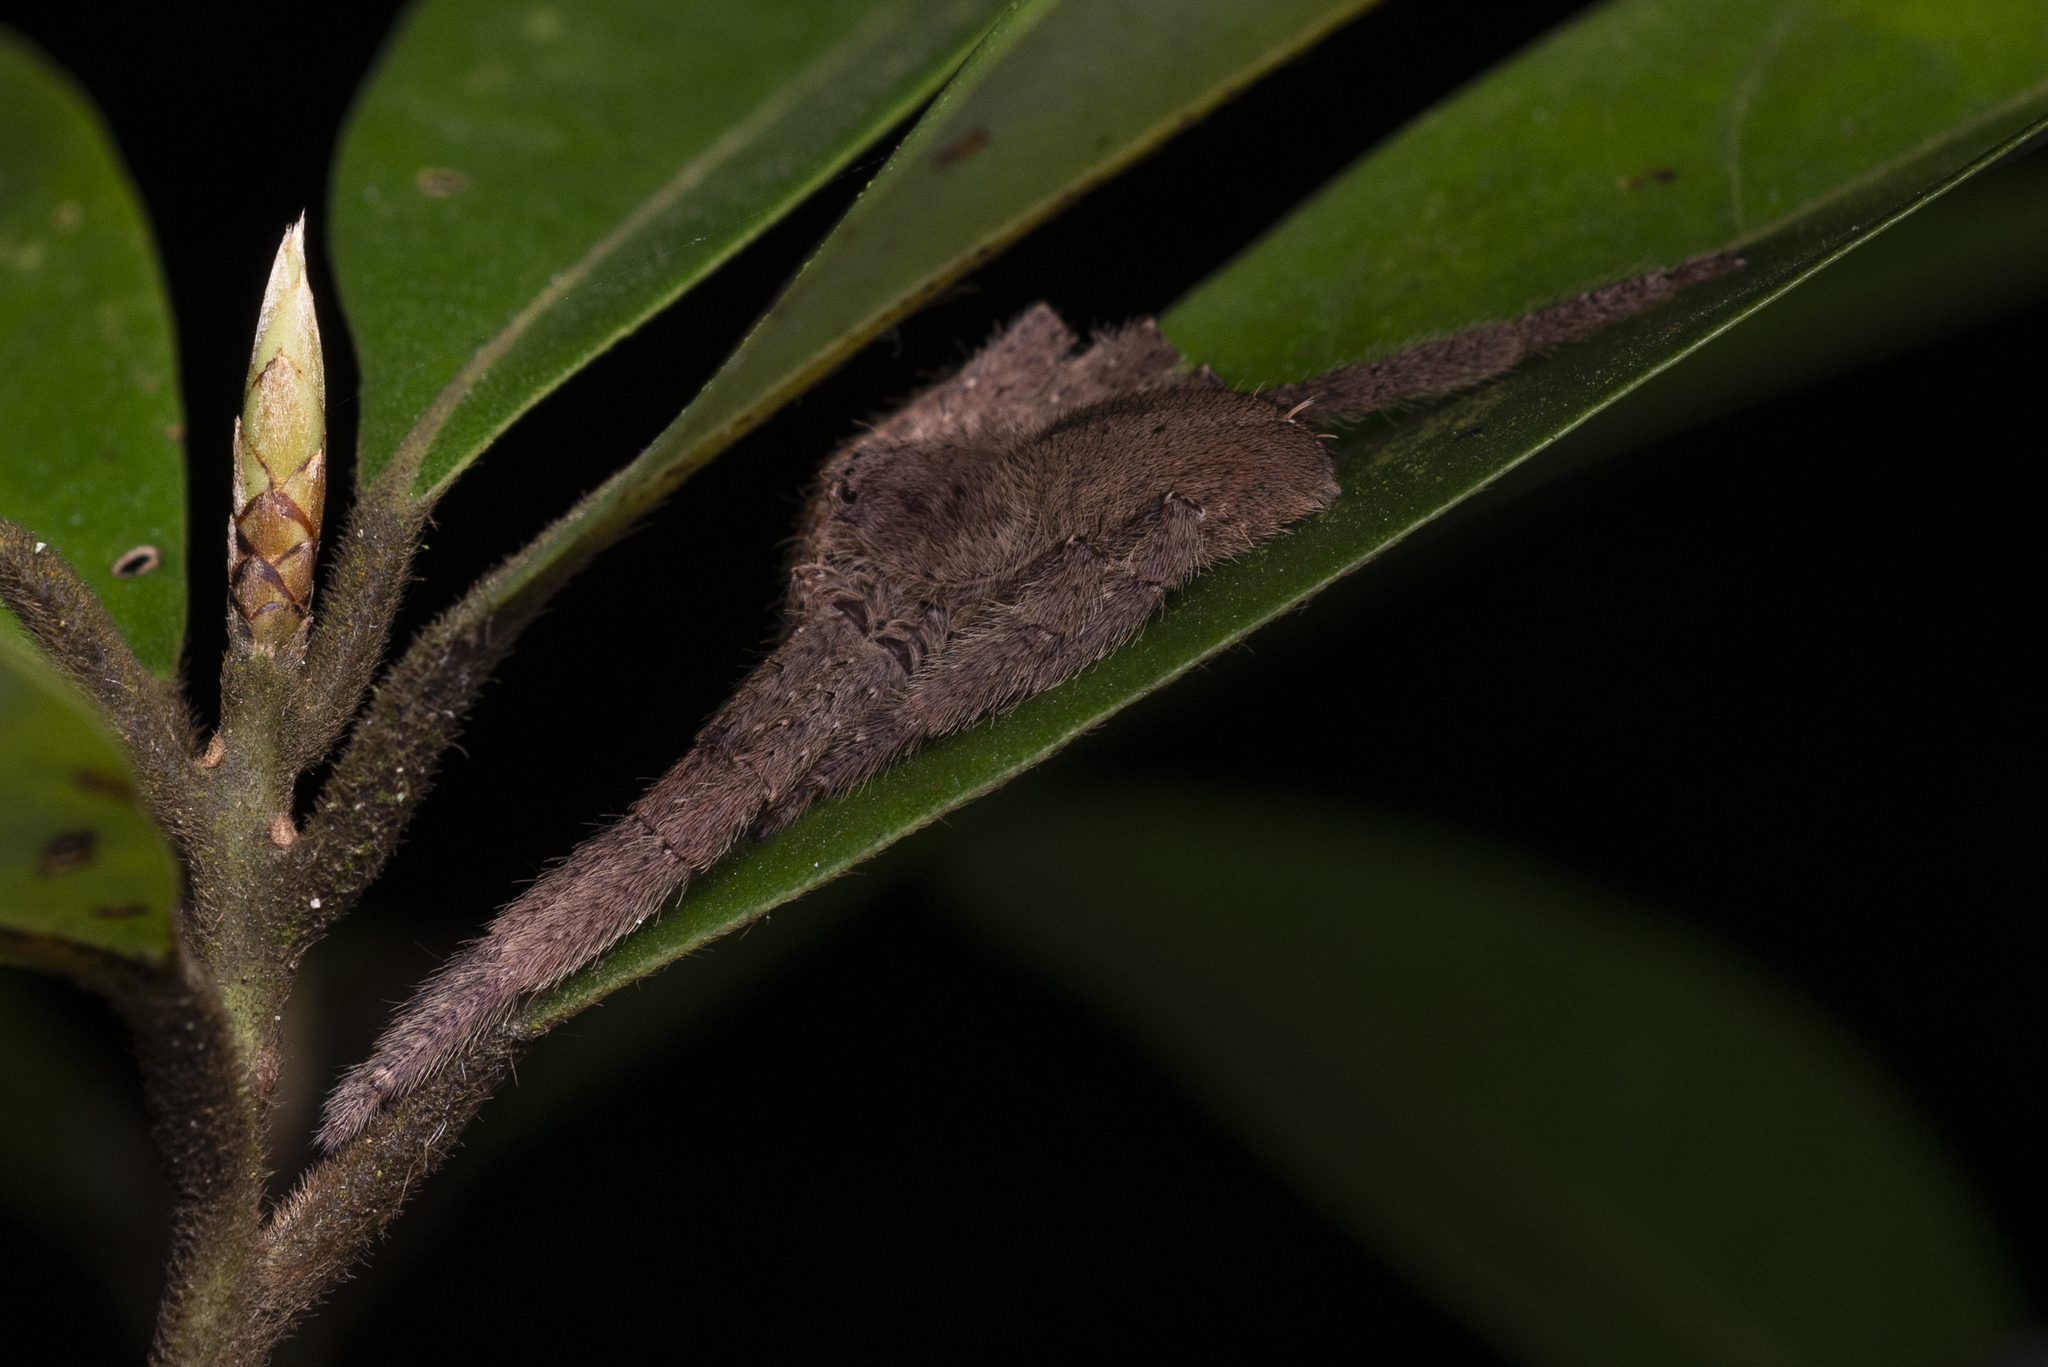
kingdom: Animalia
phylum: Arthropoda
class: Arachnida
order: Araneae
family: Sparassidae
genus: Heteropoda
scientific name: Heteropoda pingtungensis
